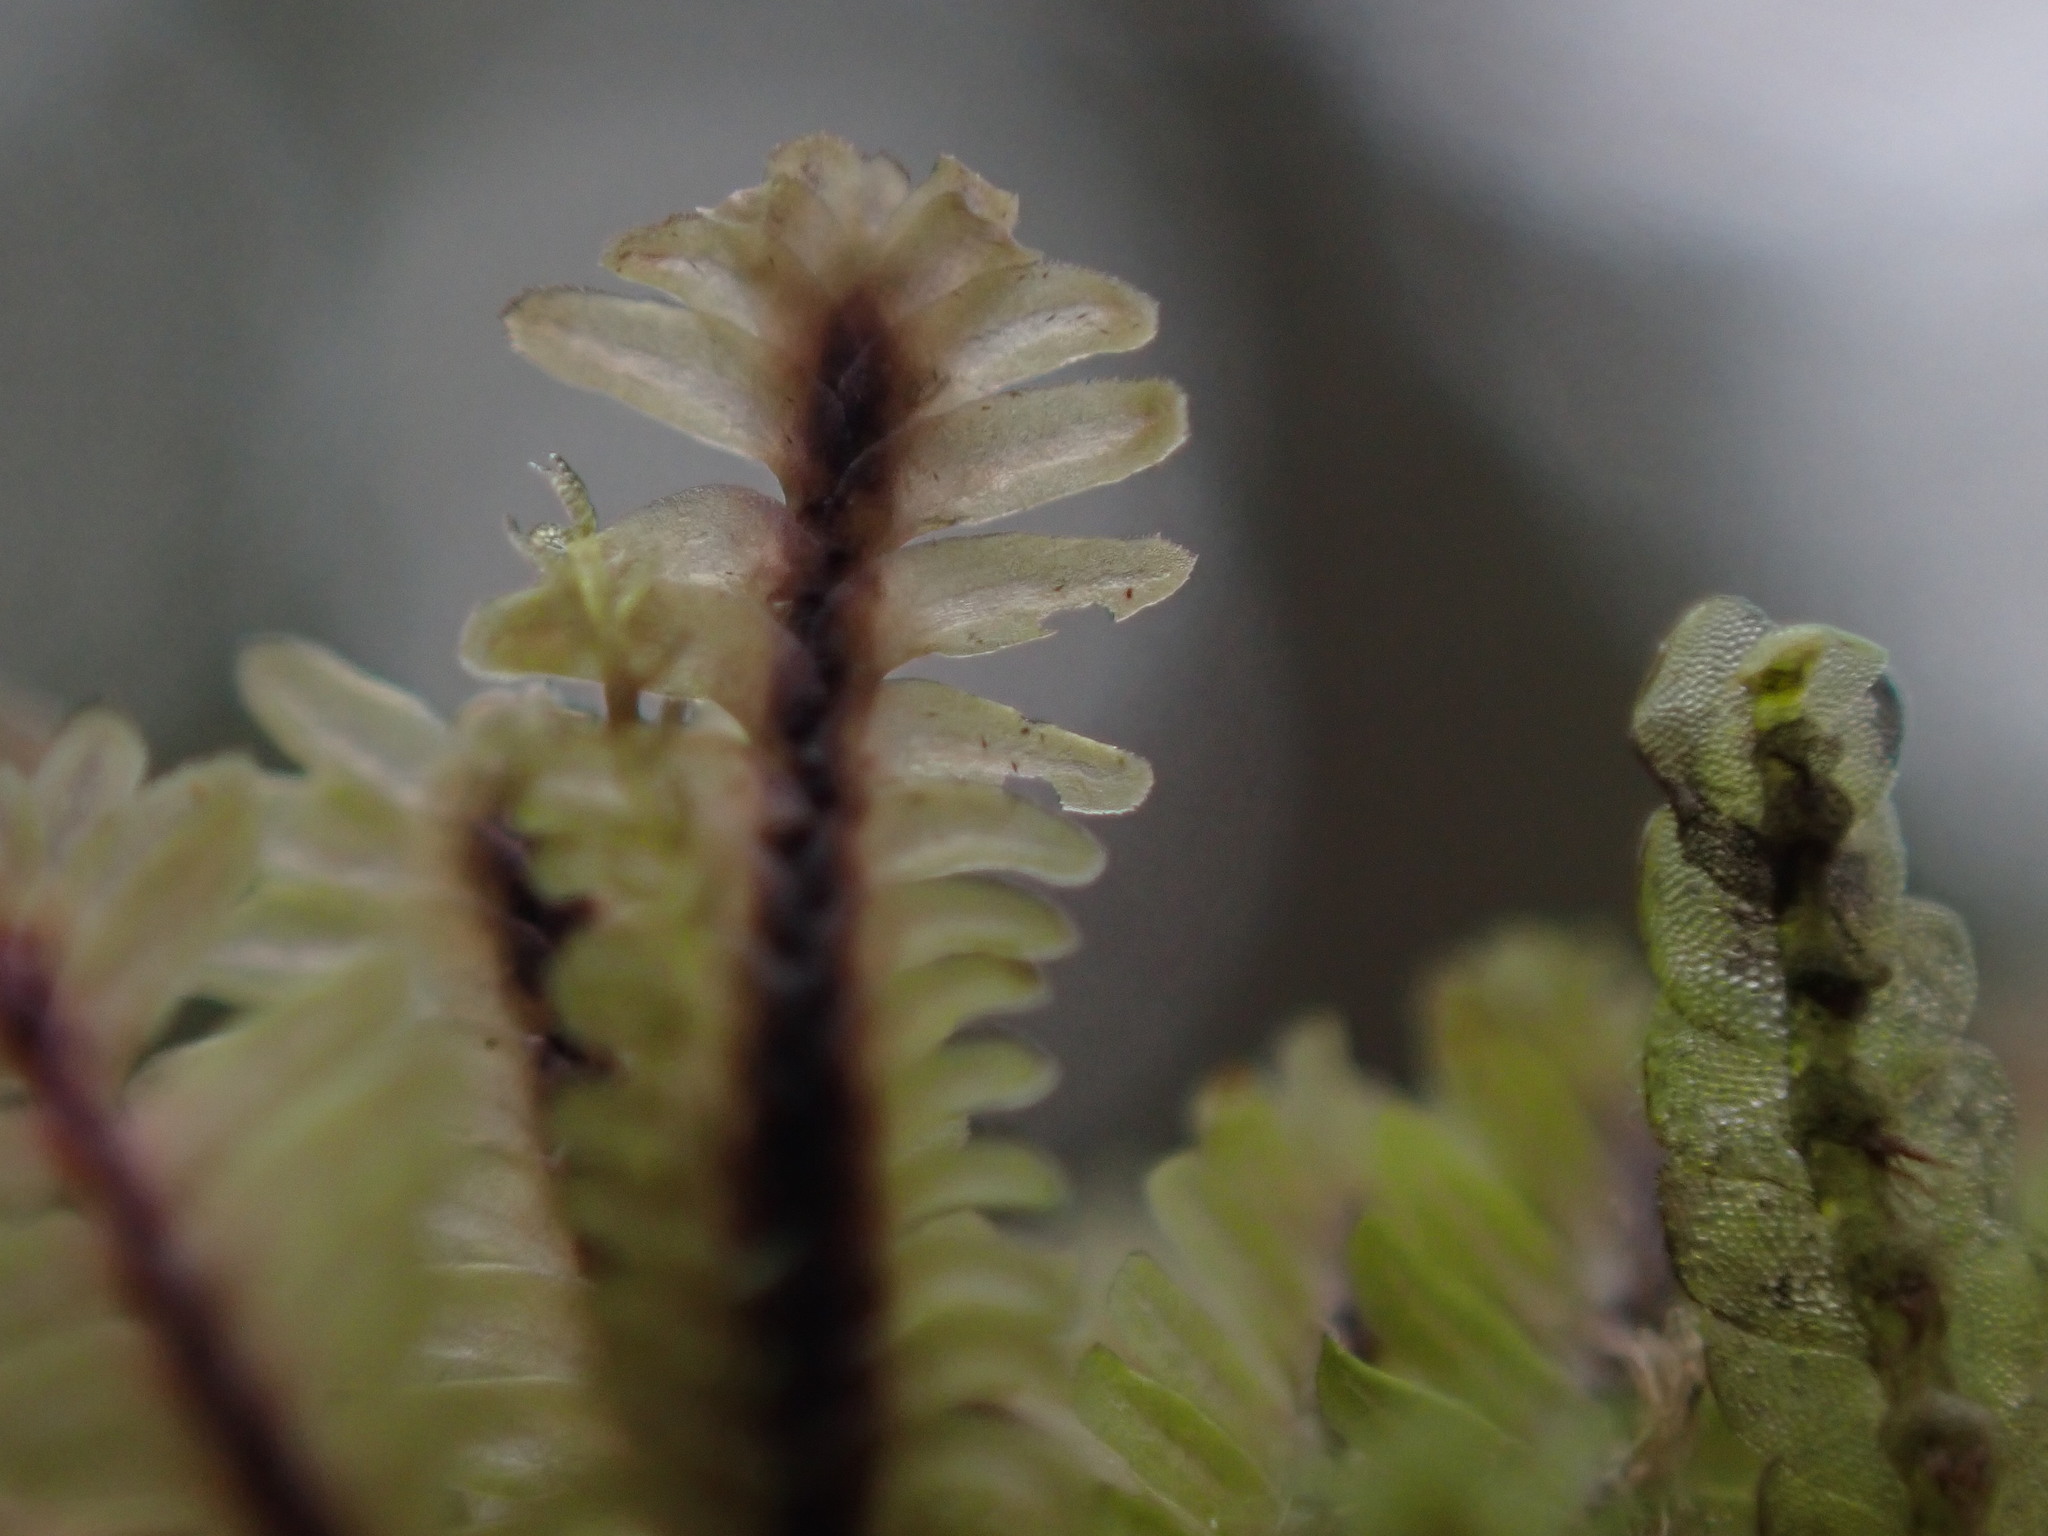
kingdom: Plantae
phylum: Marchantiophyta
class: Jungermanniopsida
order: Jungermanniales
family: Scapaniaceae
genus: Diplophyllum
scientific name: Diplophyllum albicans
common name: White earwort
